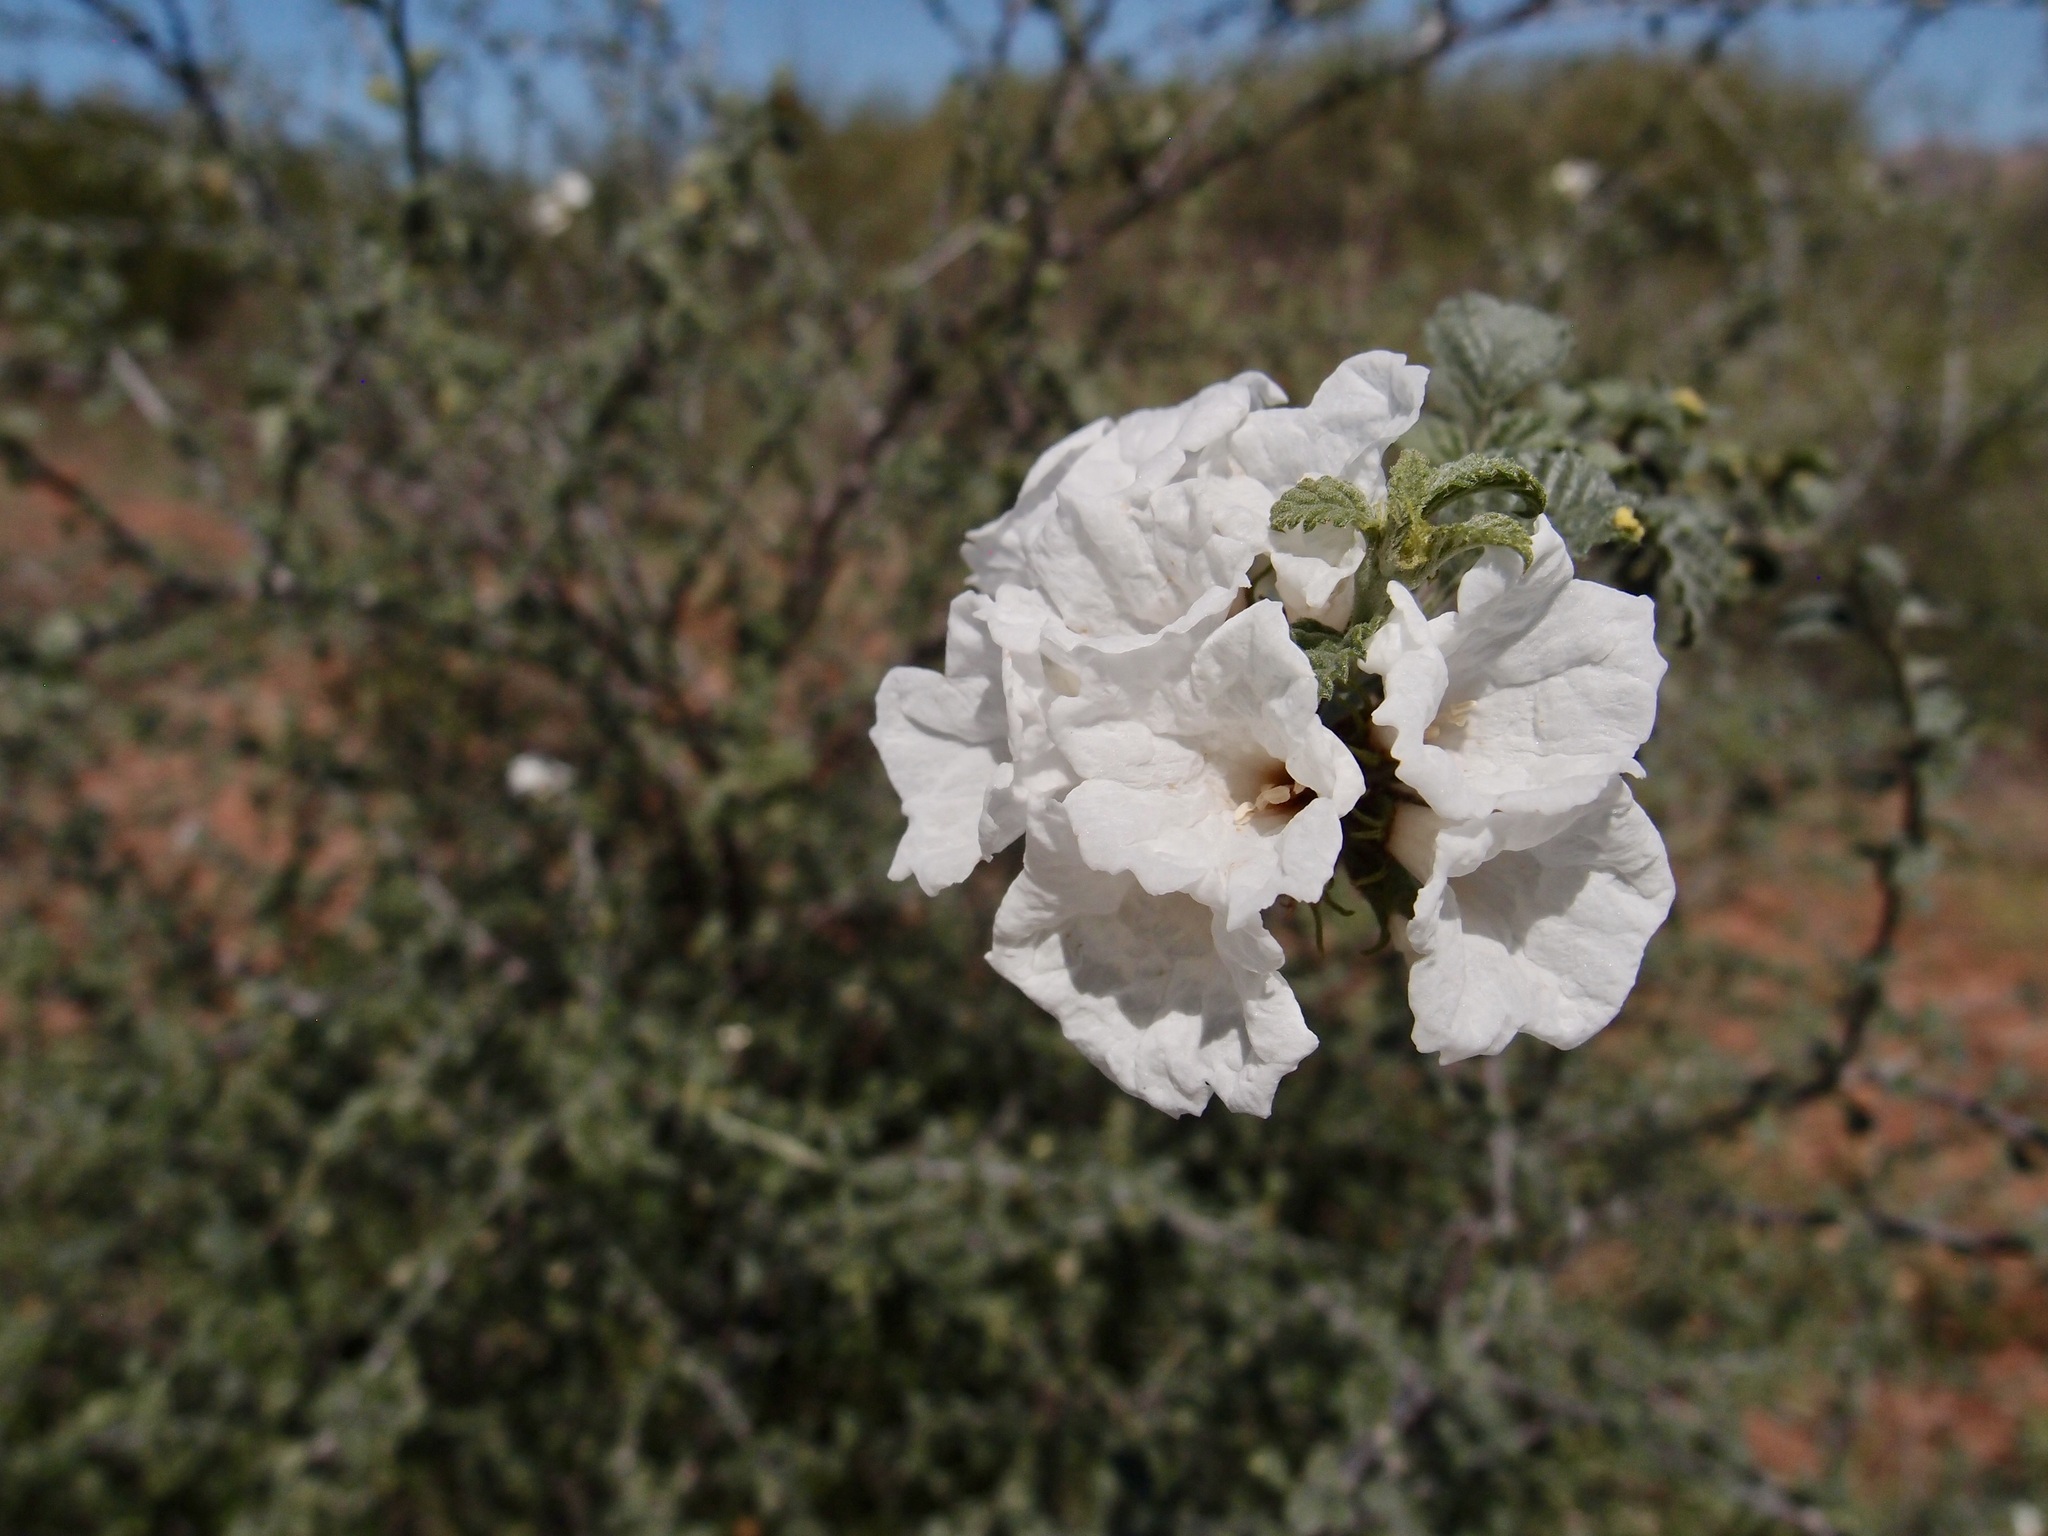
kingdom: Plantae
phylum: Tracheophyta
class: Magnoliopsida
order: Boraginales
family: Cordiaceae
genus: Cordia
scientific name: Cordia parvifolia
